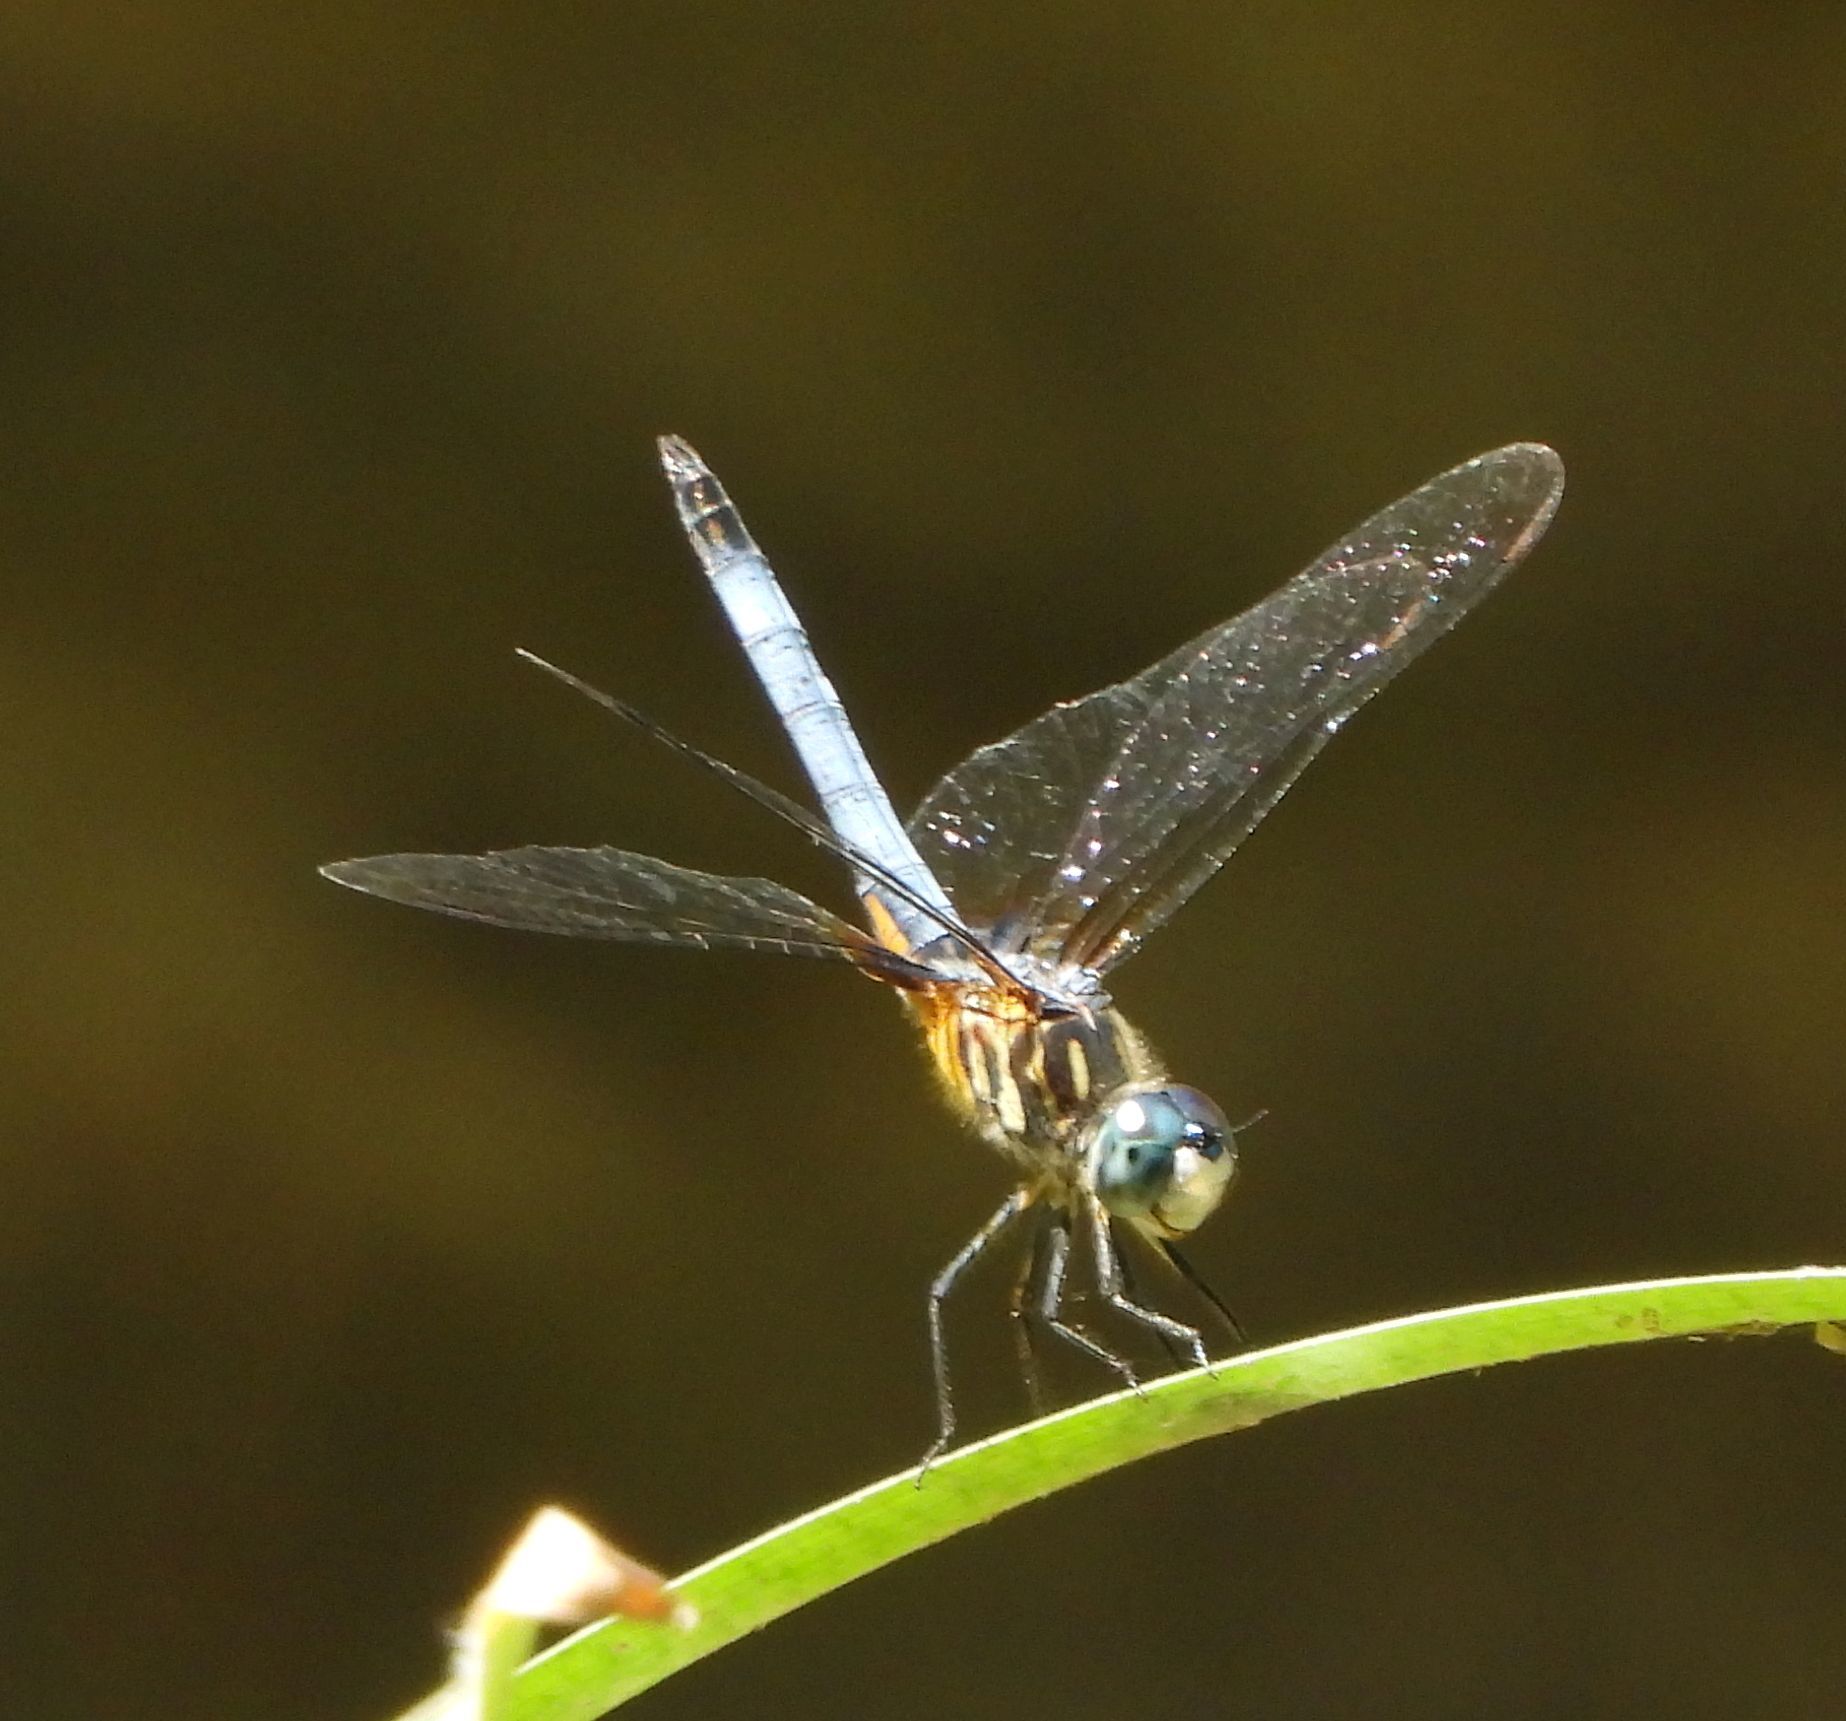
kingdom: Animalia
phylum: Arthropoda
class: Insecta
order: Odonata
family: Libellulidae
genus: Pachydiplax
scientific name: Pachydiplax longipennis
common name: Blue dasher
